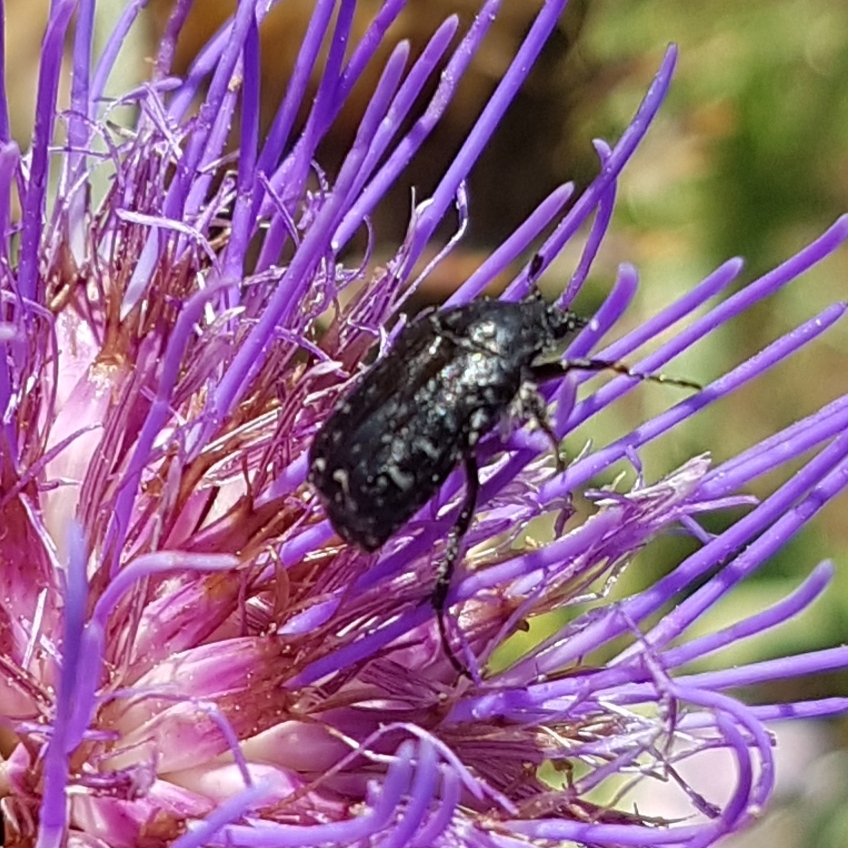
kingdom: Animalia
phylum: Arthropoda
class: Insecta
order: Coleoptera
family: Scarabaeidae
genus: Oxythyrea
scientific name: Oxythyrea funesta
